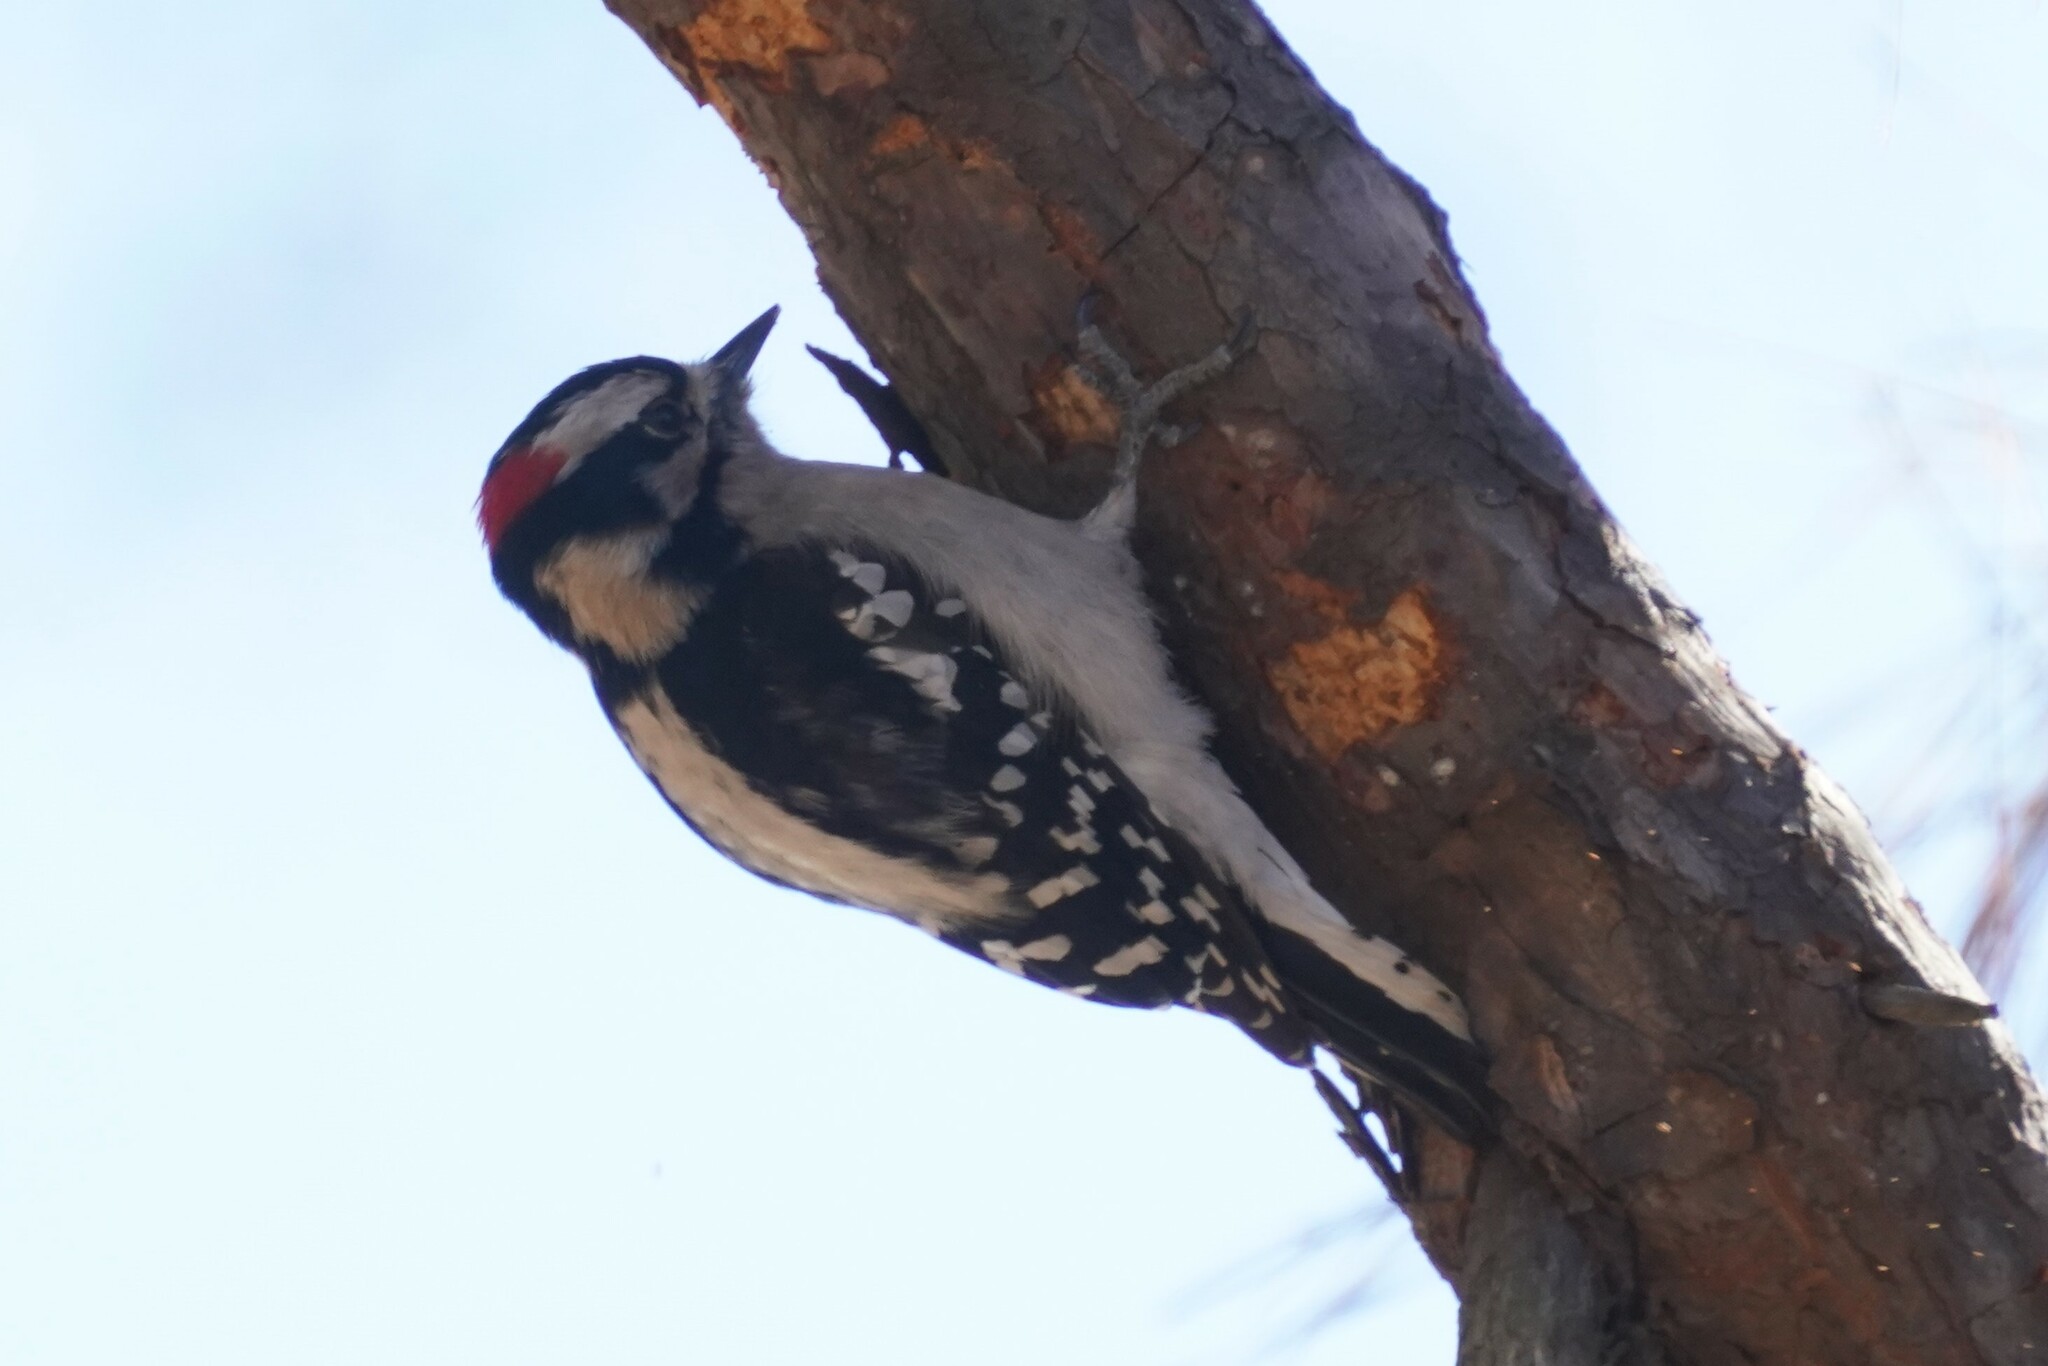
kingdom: Animalia
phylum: Chordata
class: Aves
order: Piciformes
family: Picidae
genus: Dryobates
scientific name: Dryobates pubescens
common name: Downy woodpecker
